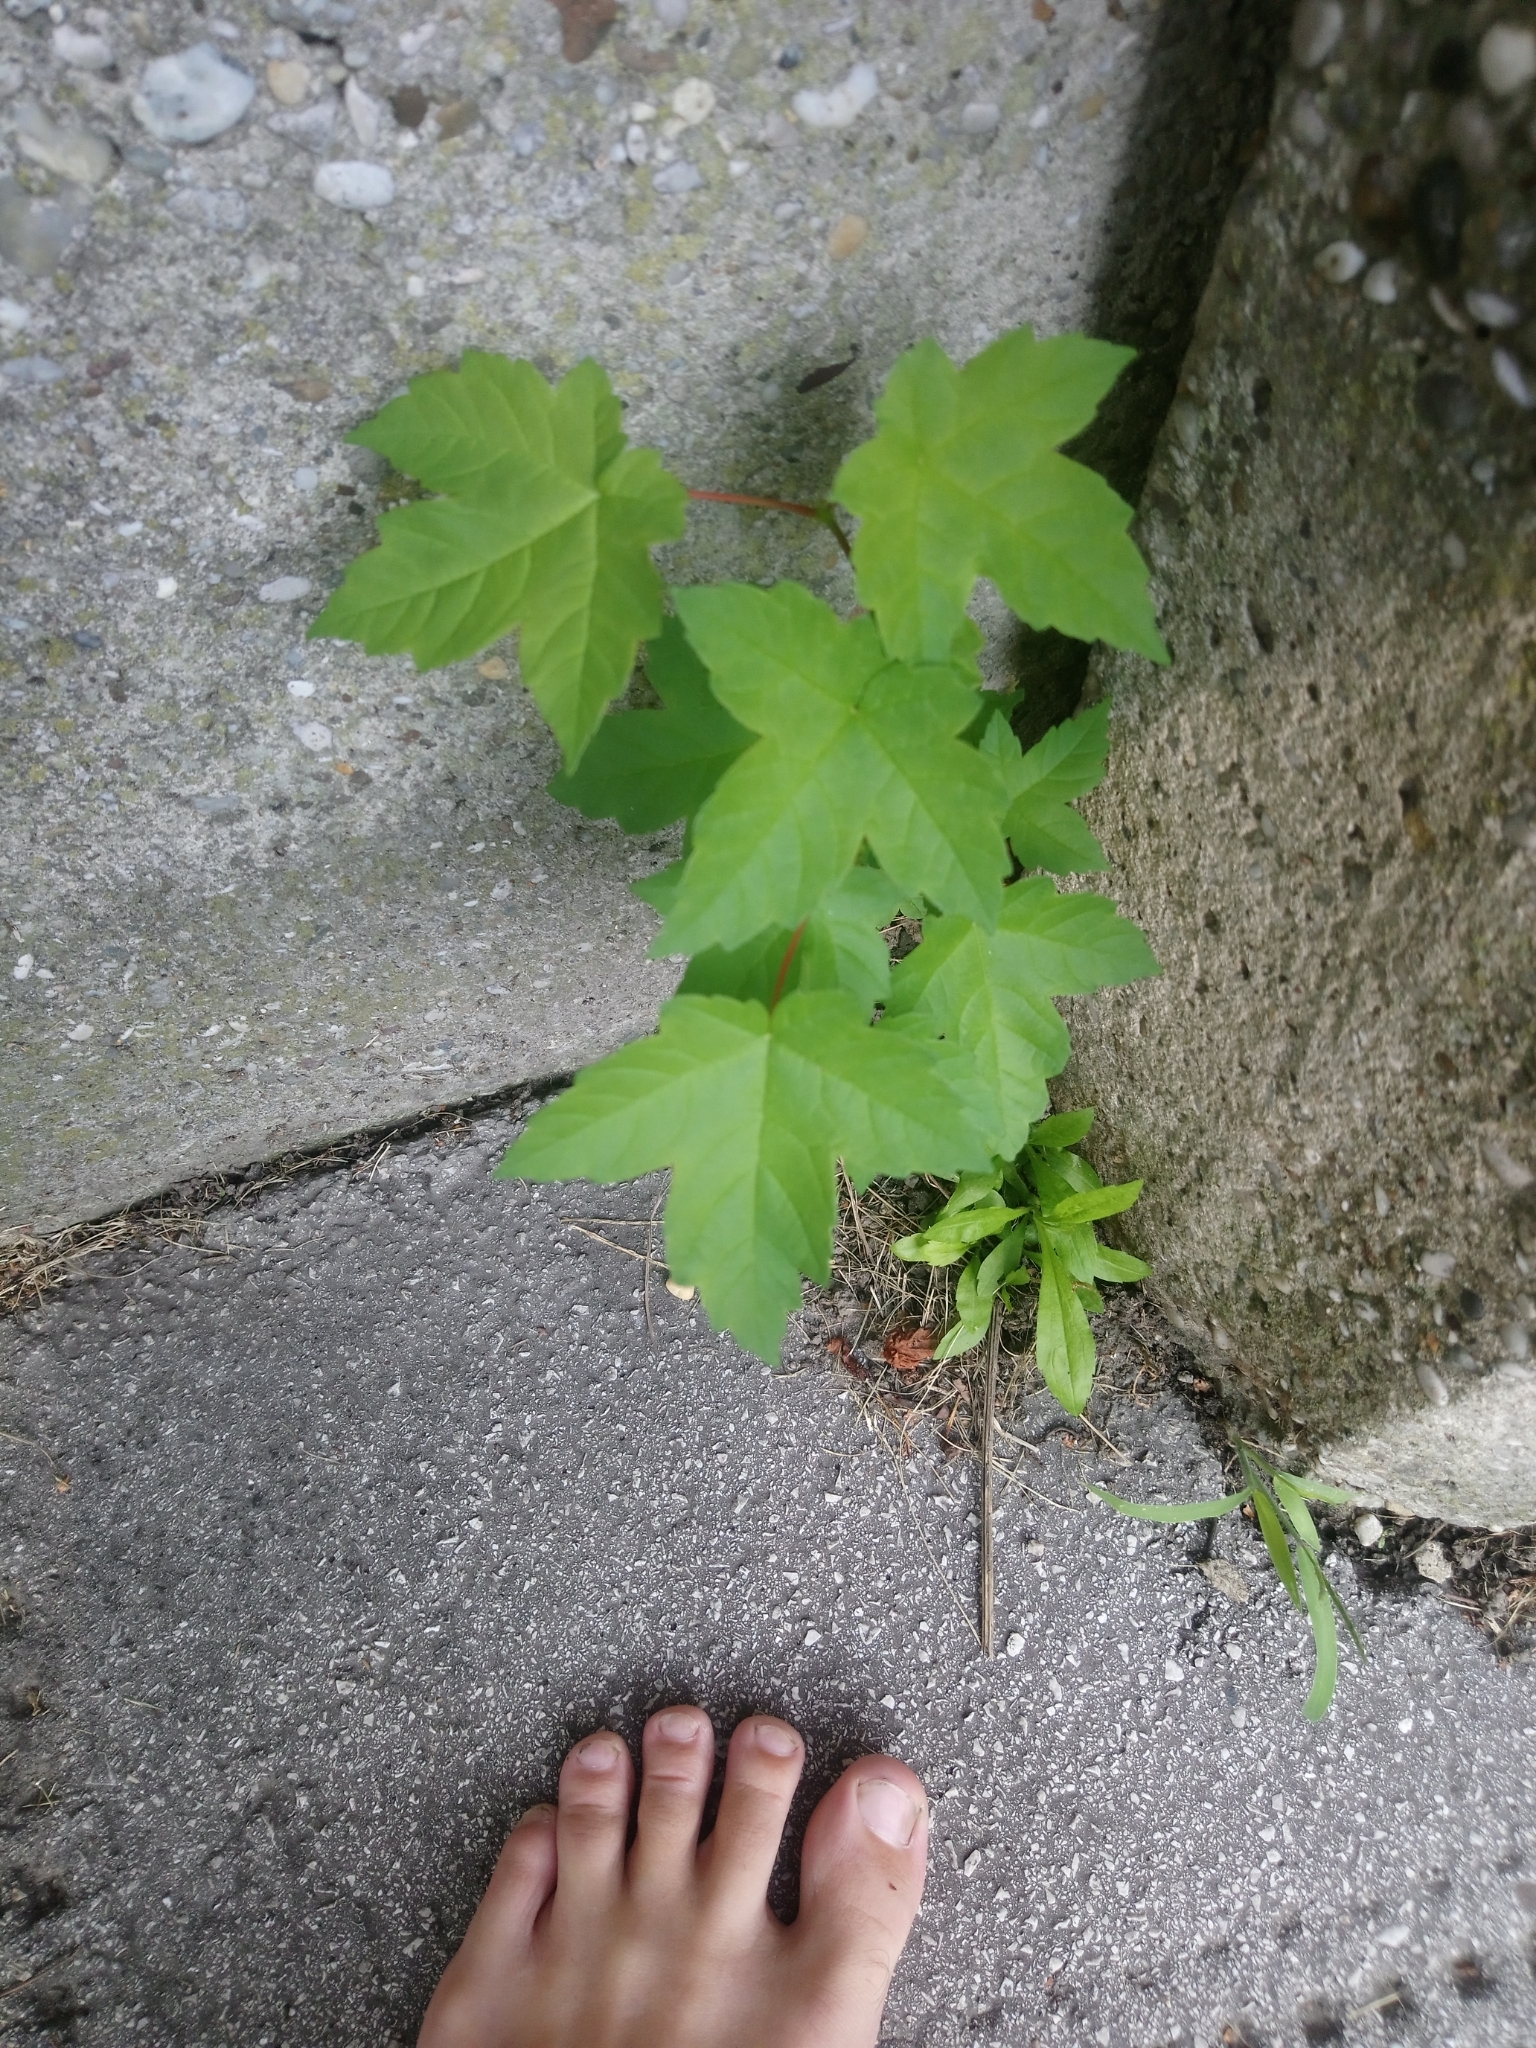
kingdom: Plantae
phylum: Tracheophyta
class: Magnoliopsida
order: Sapindales
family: Sapindaceae
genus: Acer
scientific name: Acer pseudoplatanus
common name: Sycamore
